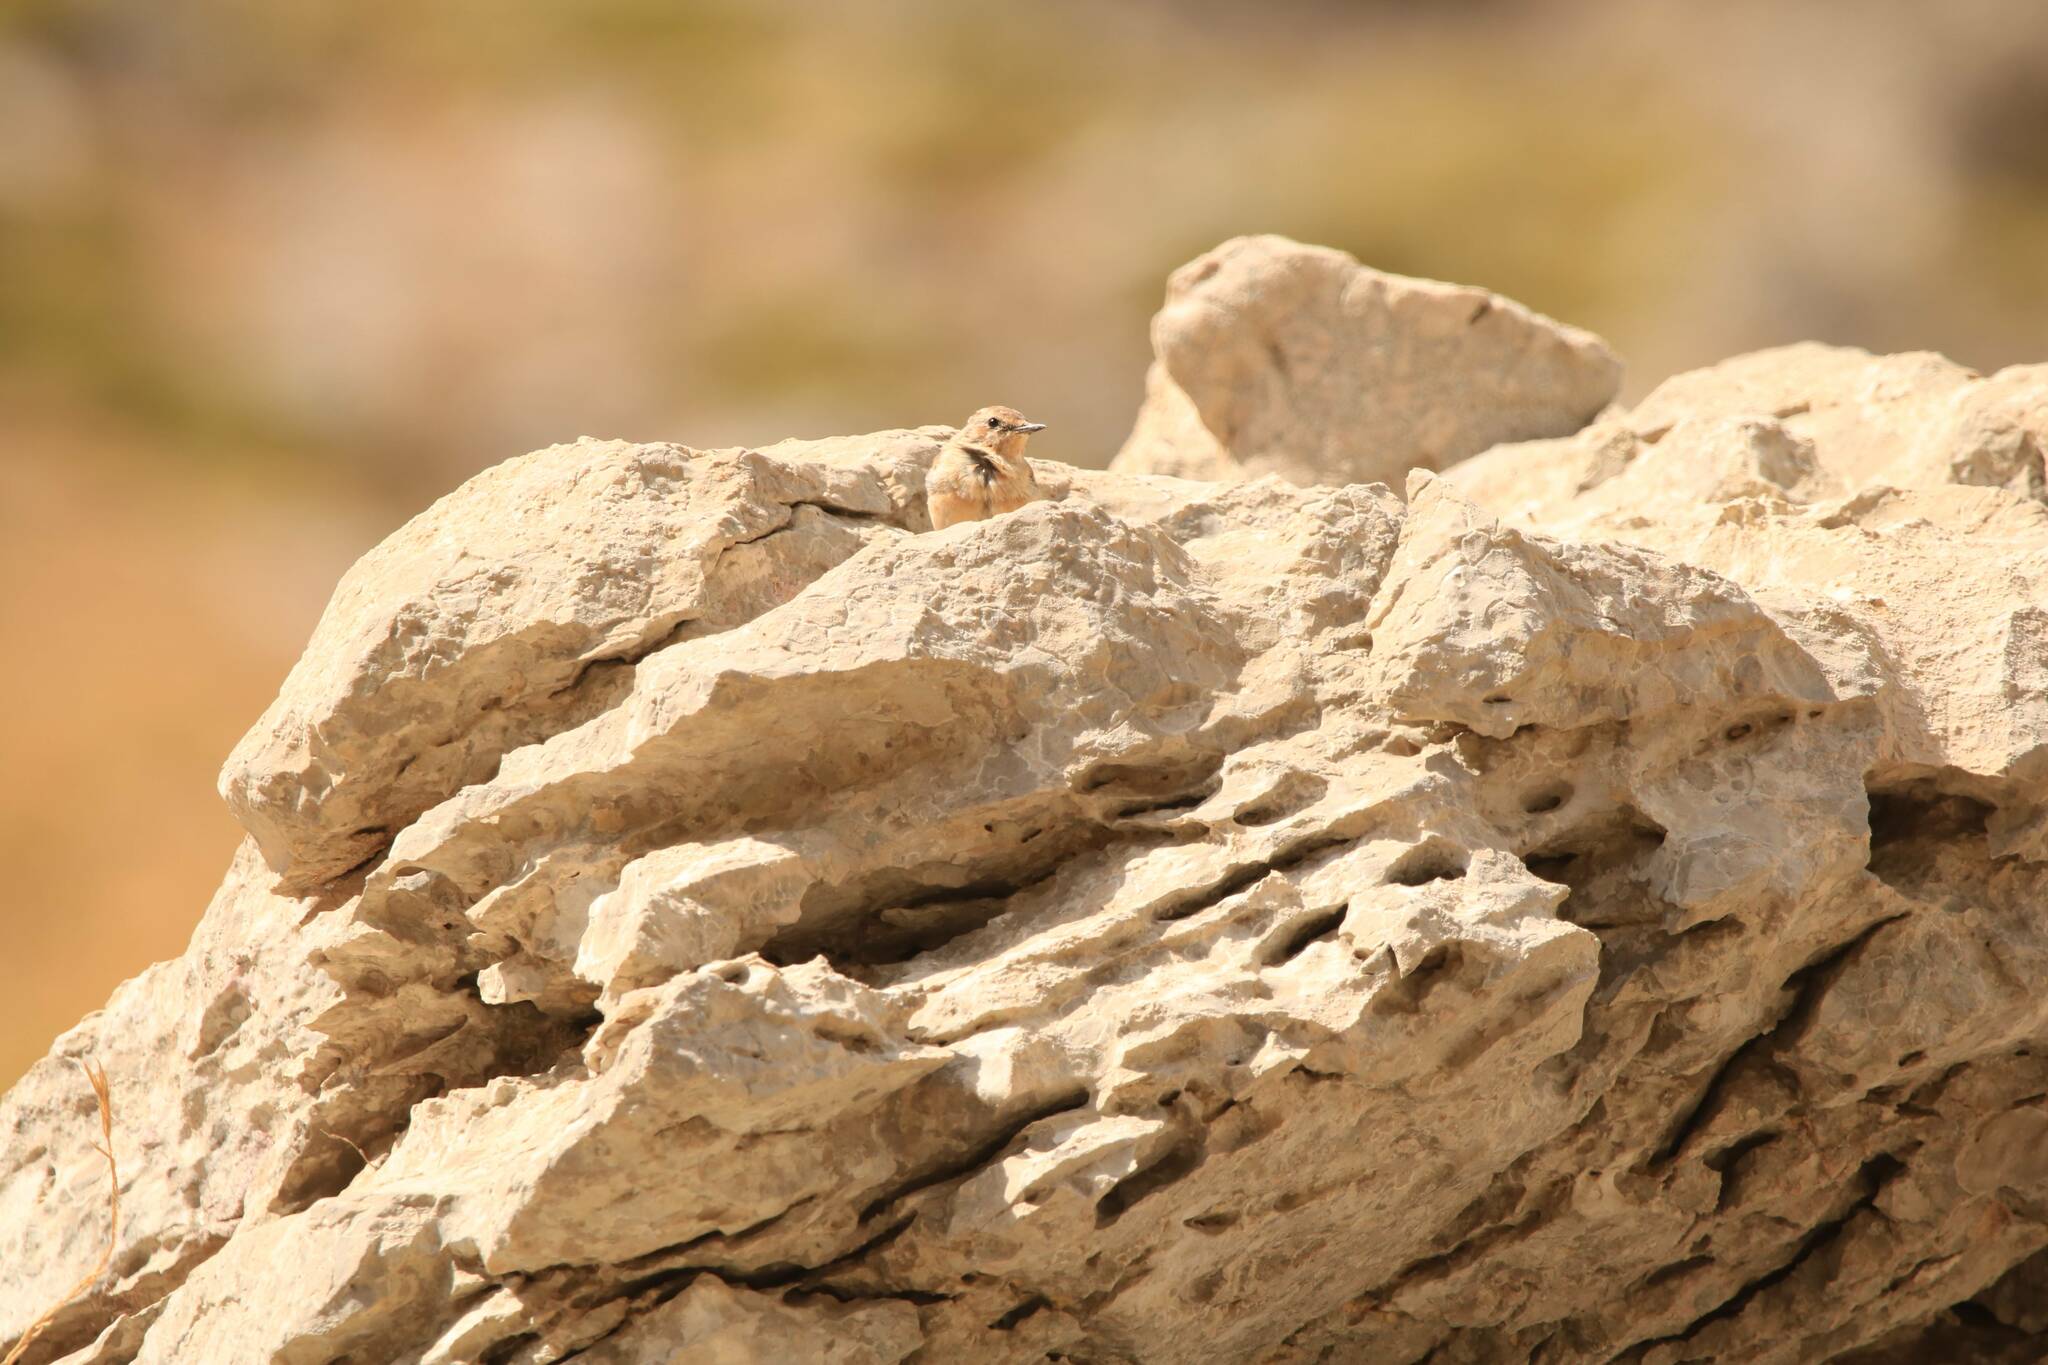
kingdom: Animalia
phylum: Chordata
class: Aves
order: Passeriformes
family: Muscicapidae
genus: Oenanthe
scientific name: Oenanthe oenanthe
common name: Northern wheatear
